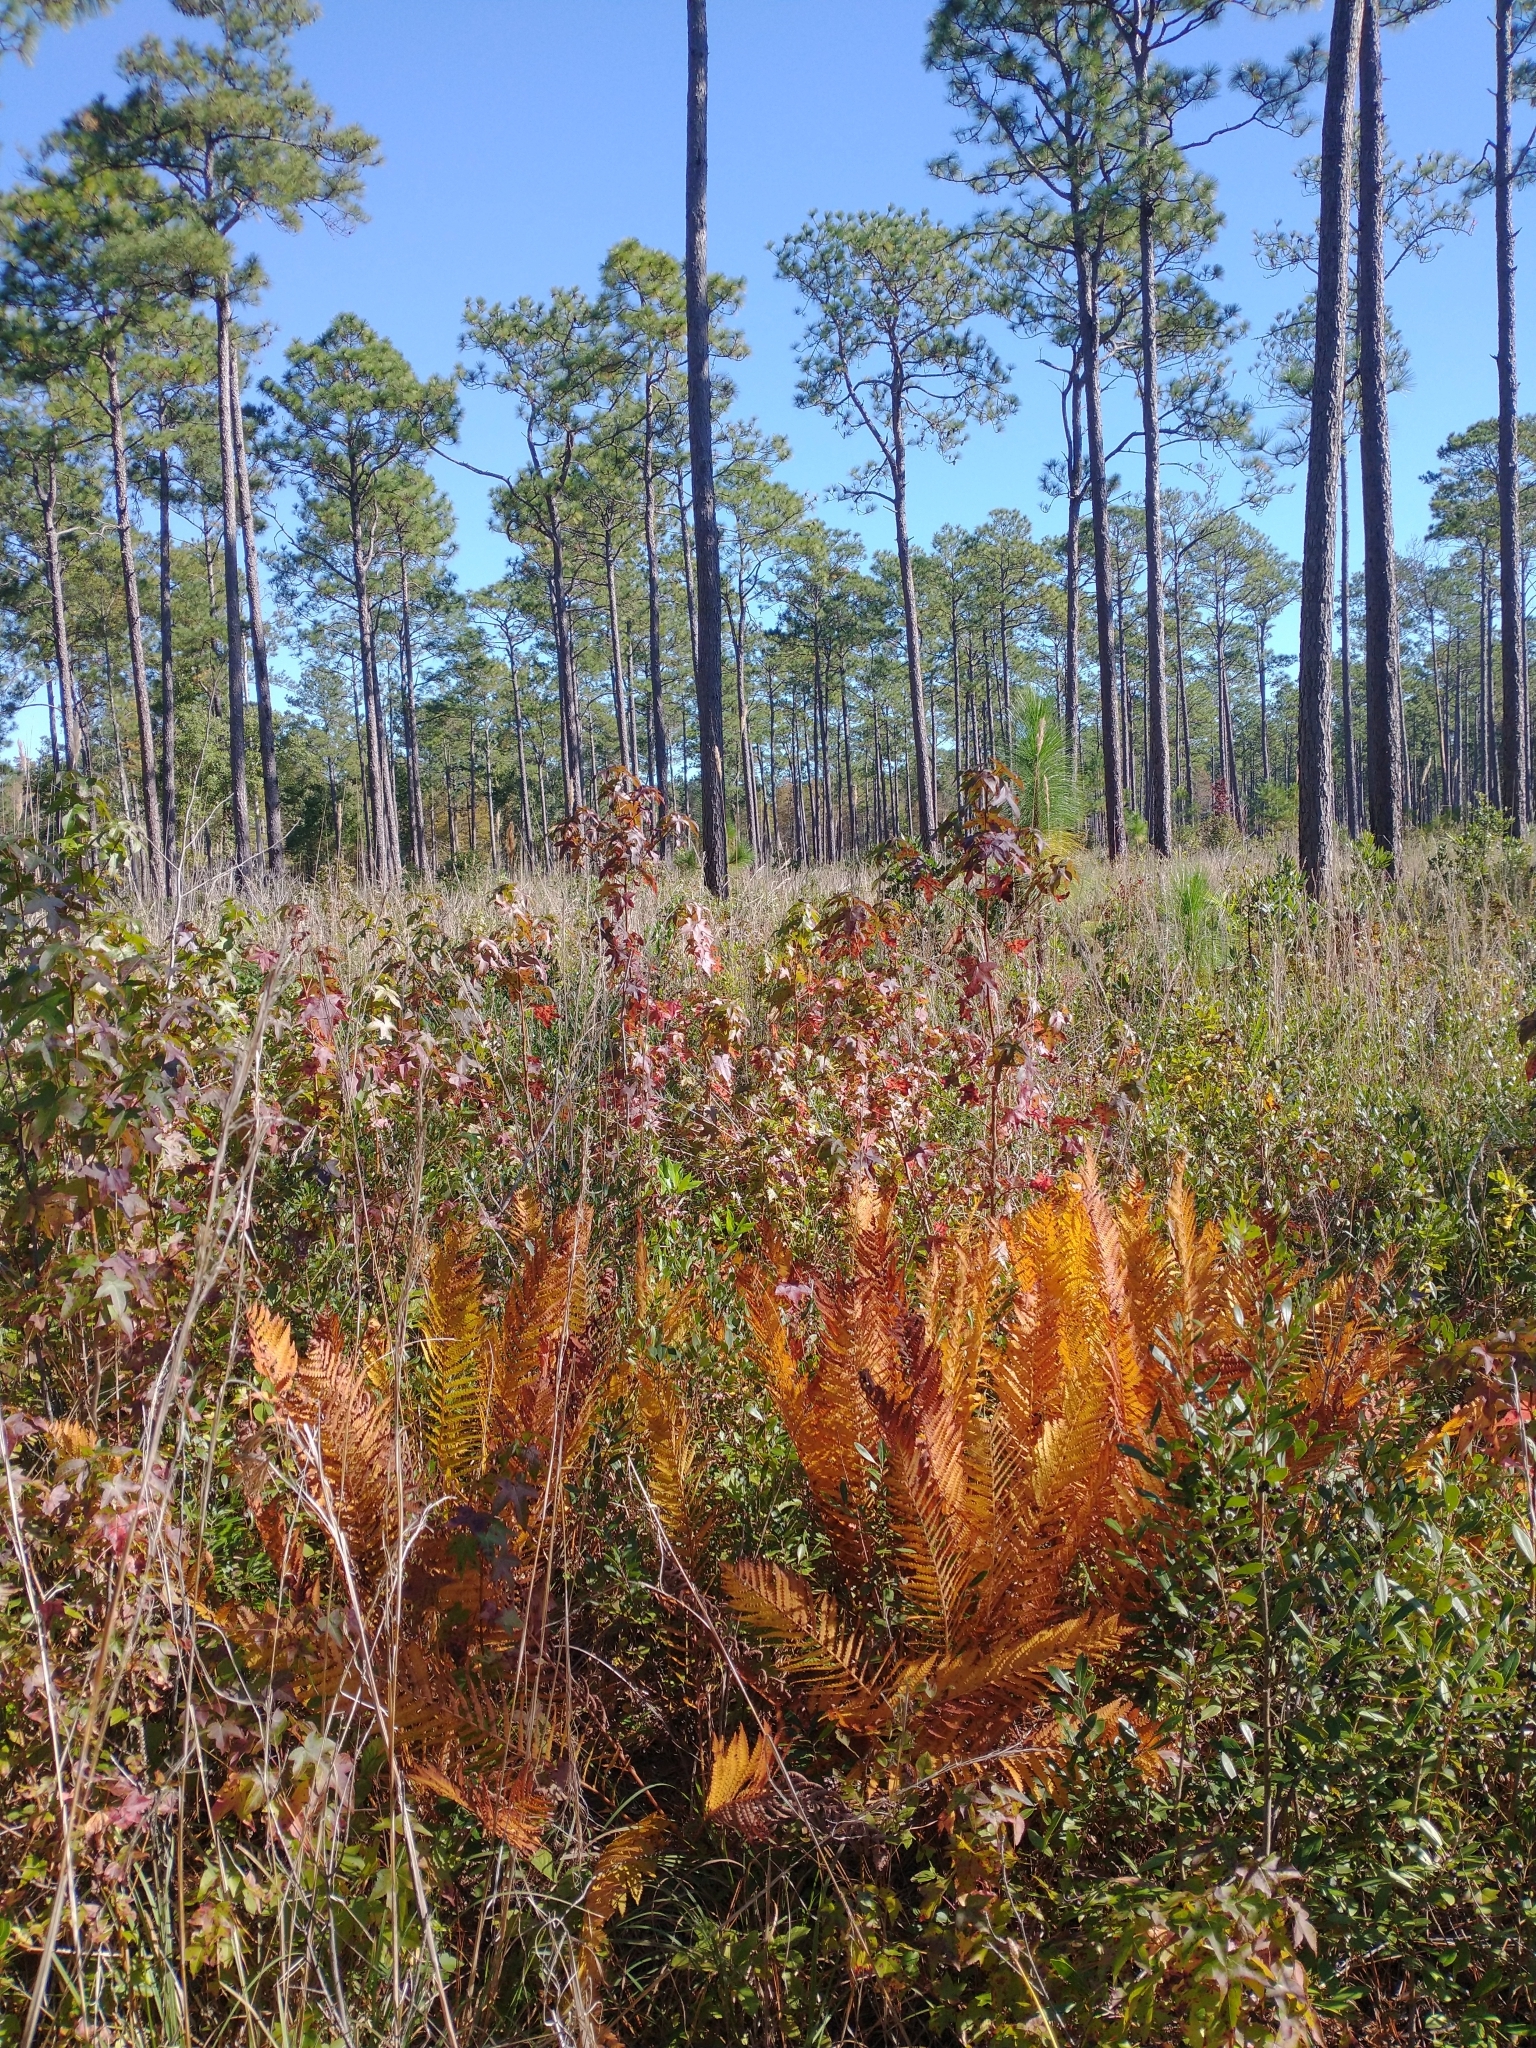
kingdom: Plantae
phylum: Tracheophyta
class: Magnoliopsida
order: Saxifragales
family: Altingiaceae
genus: Liquidambar
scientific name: Liquidambar styraciflua
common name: Sweet gum
